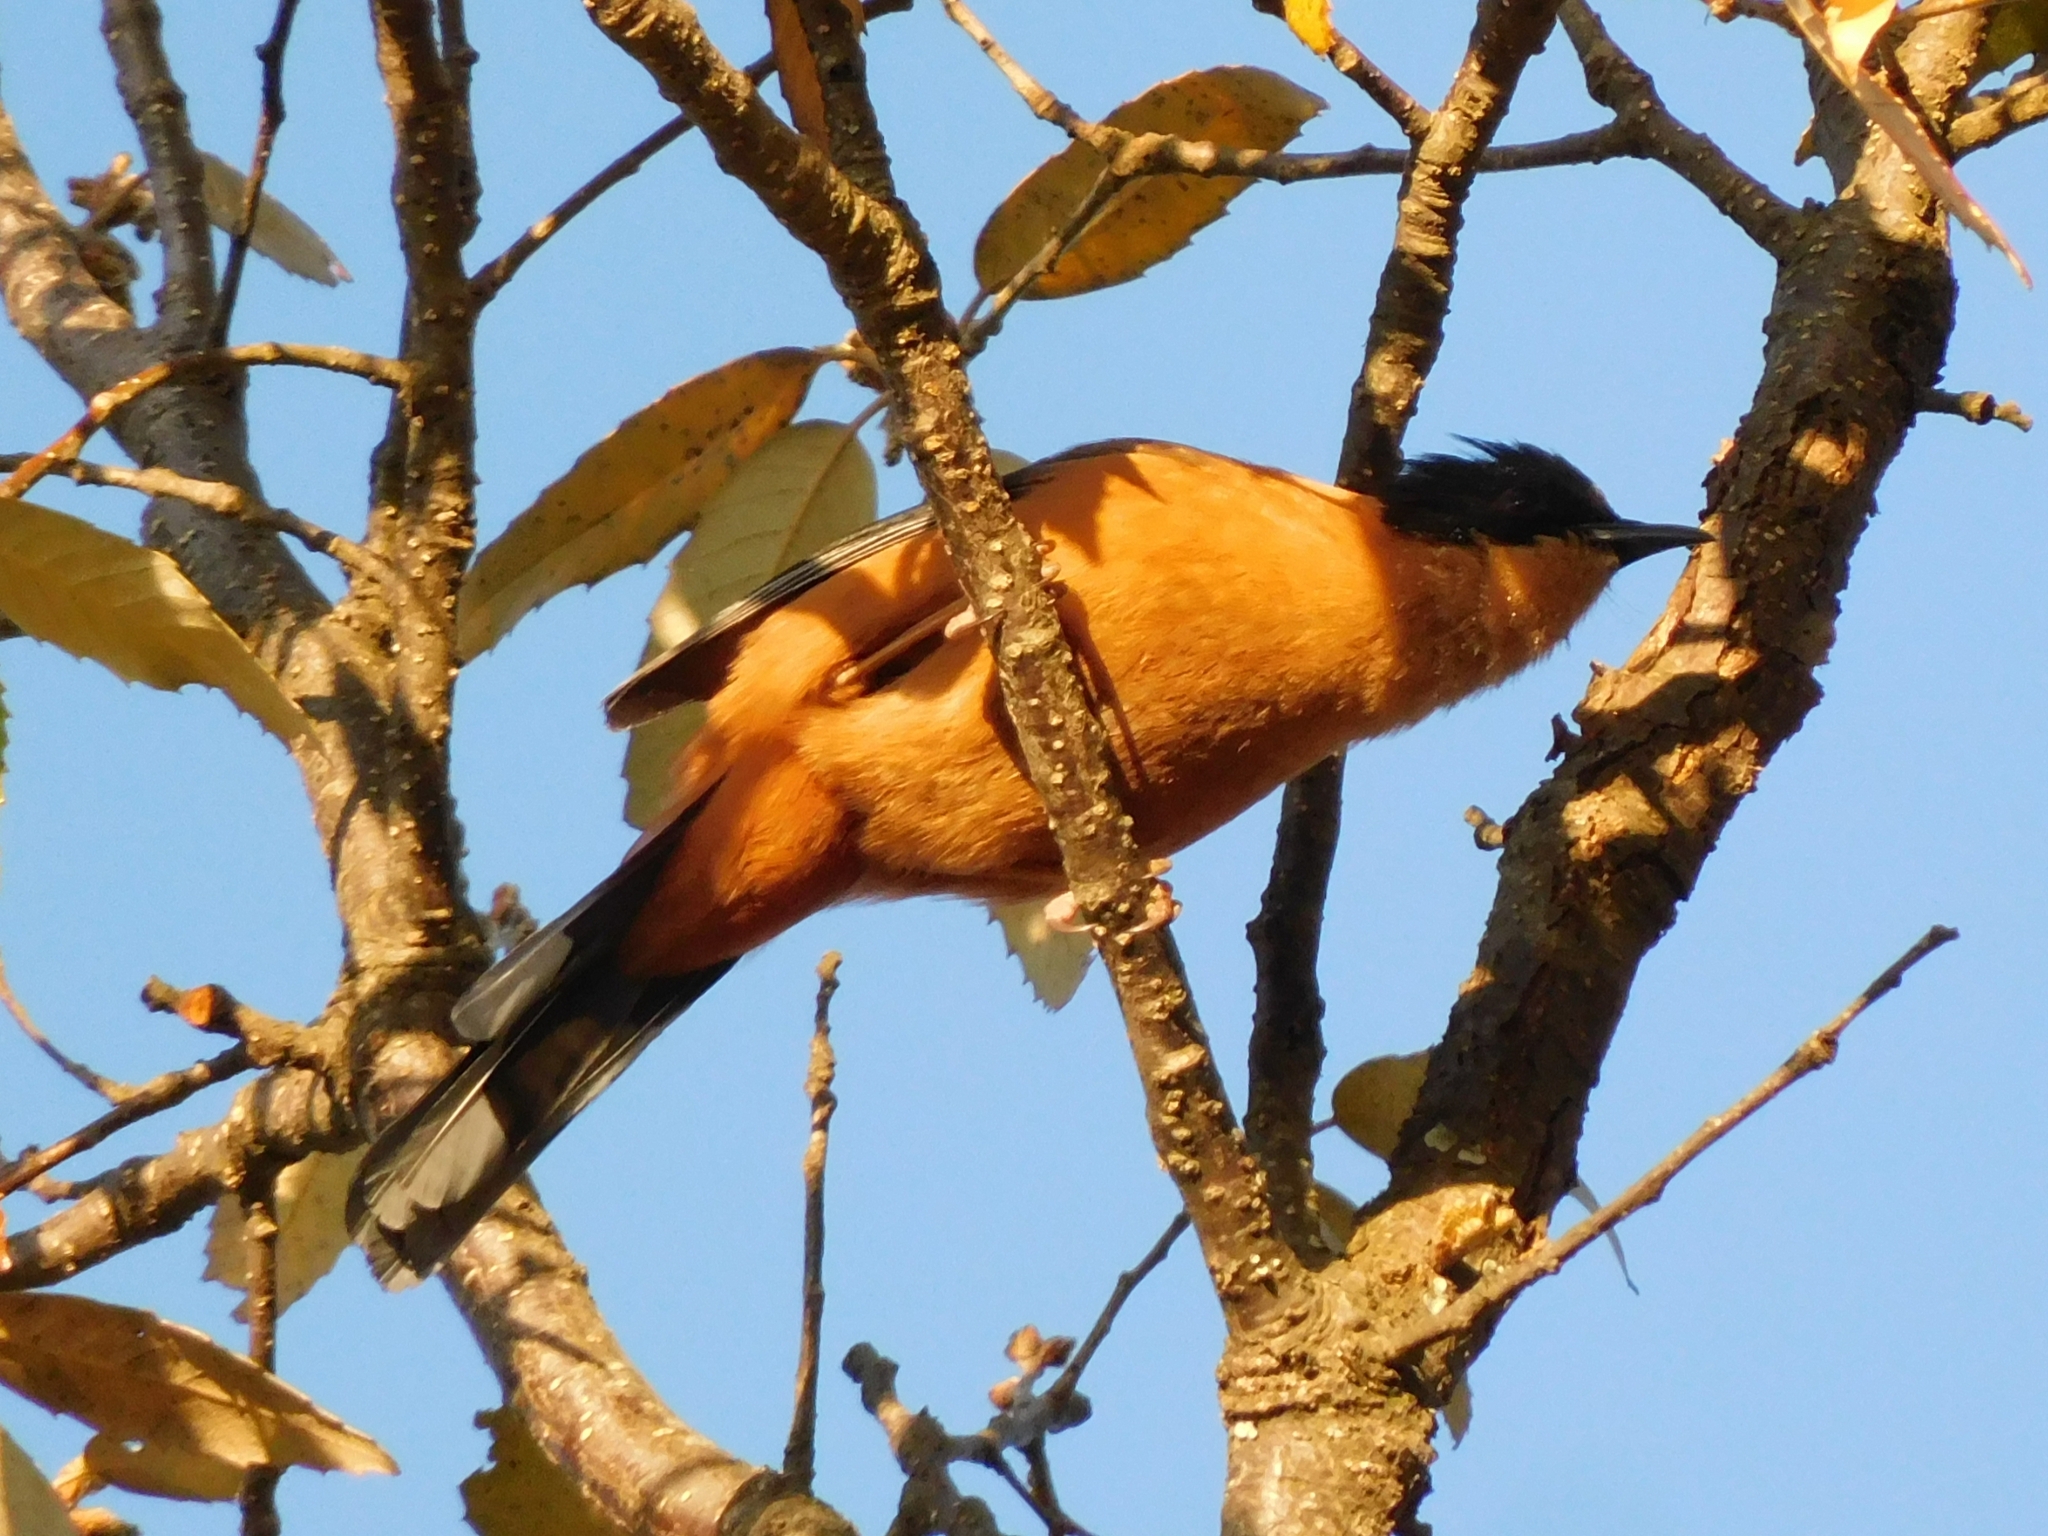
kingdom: Animalia
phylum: Chordata
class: Aves
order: Passeriformes
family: Leiothrichidae
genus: Heterophasia
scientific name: Heterophasia capistrata
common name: Rufous sibia
